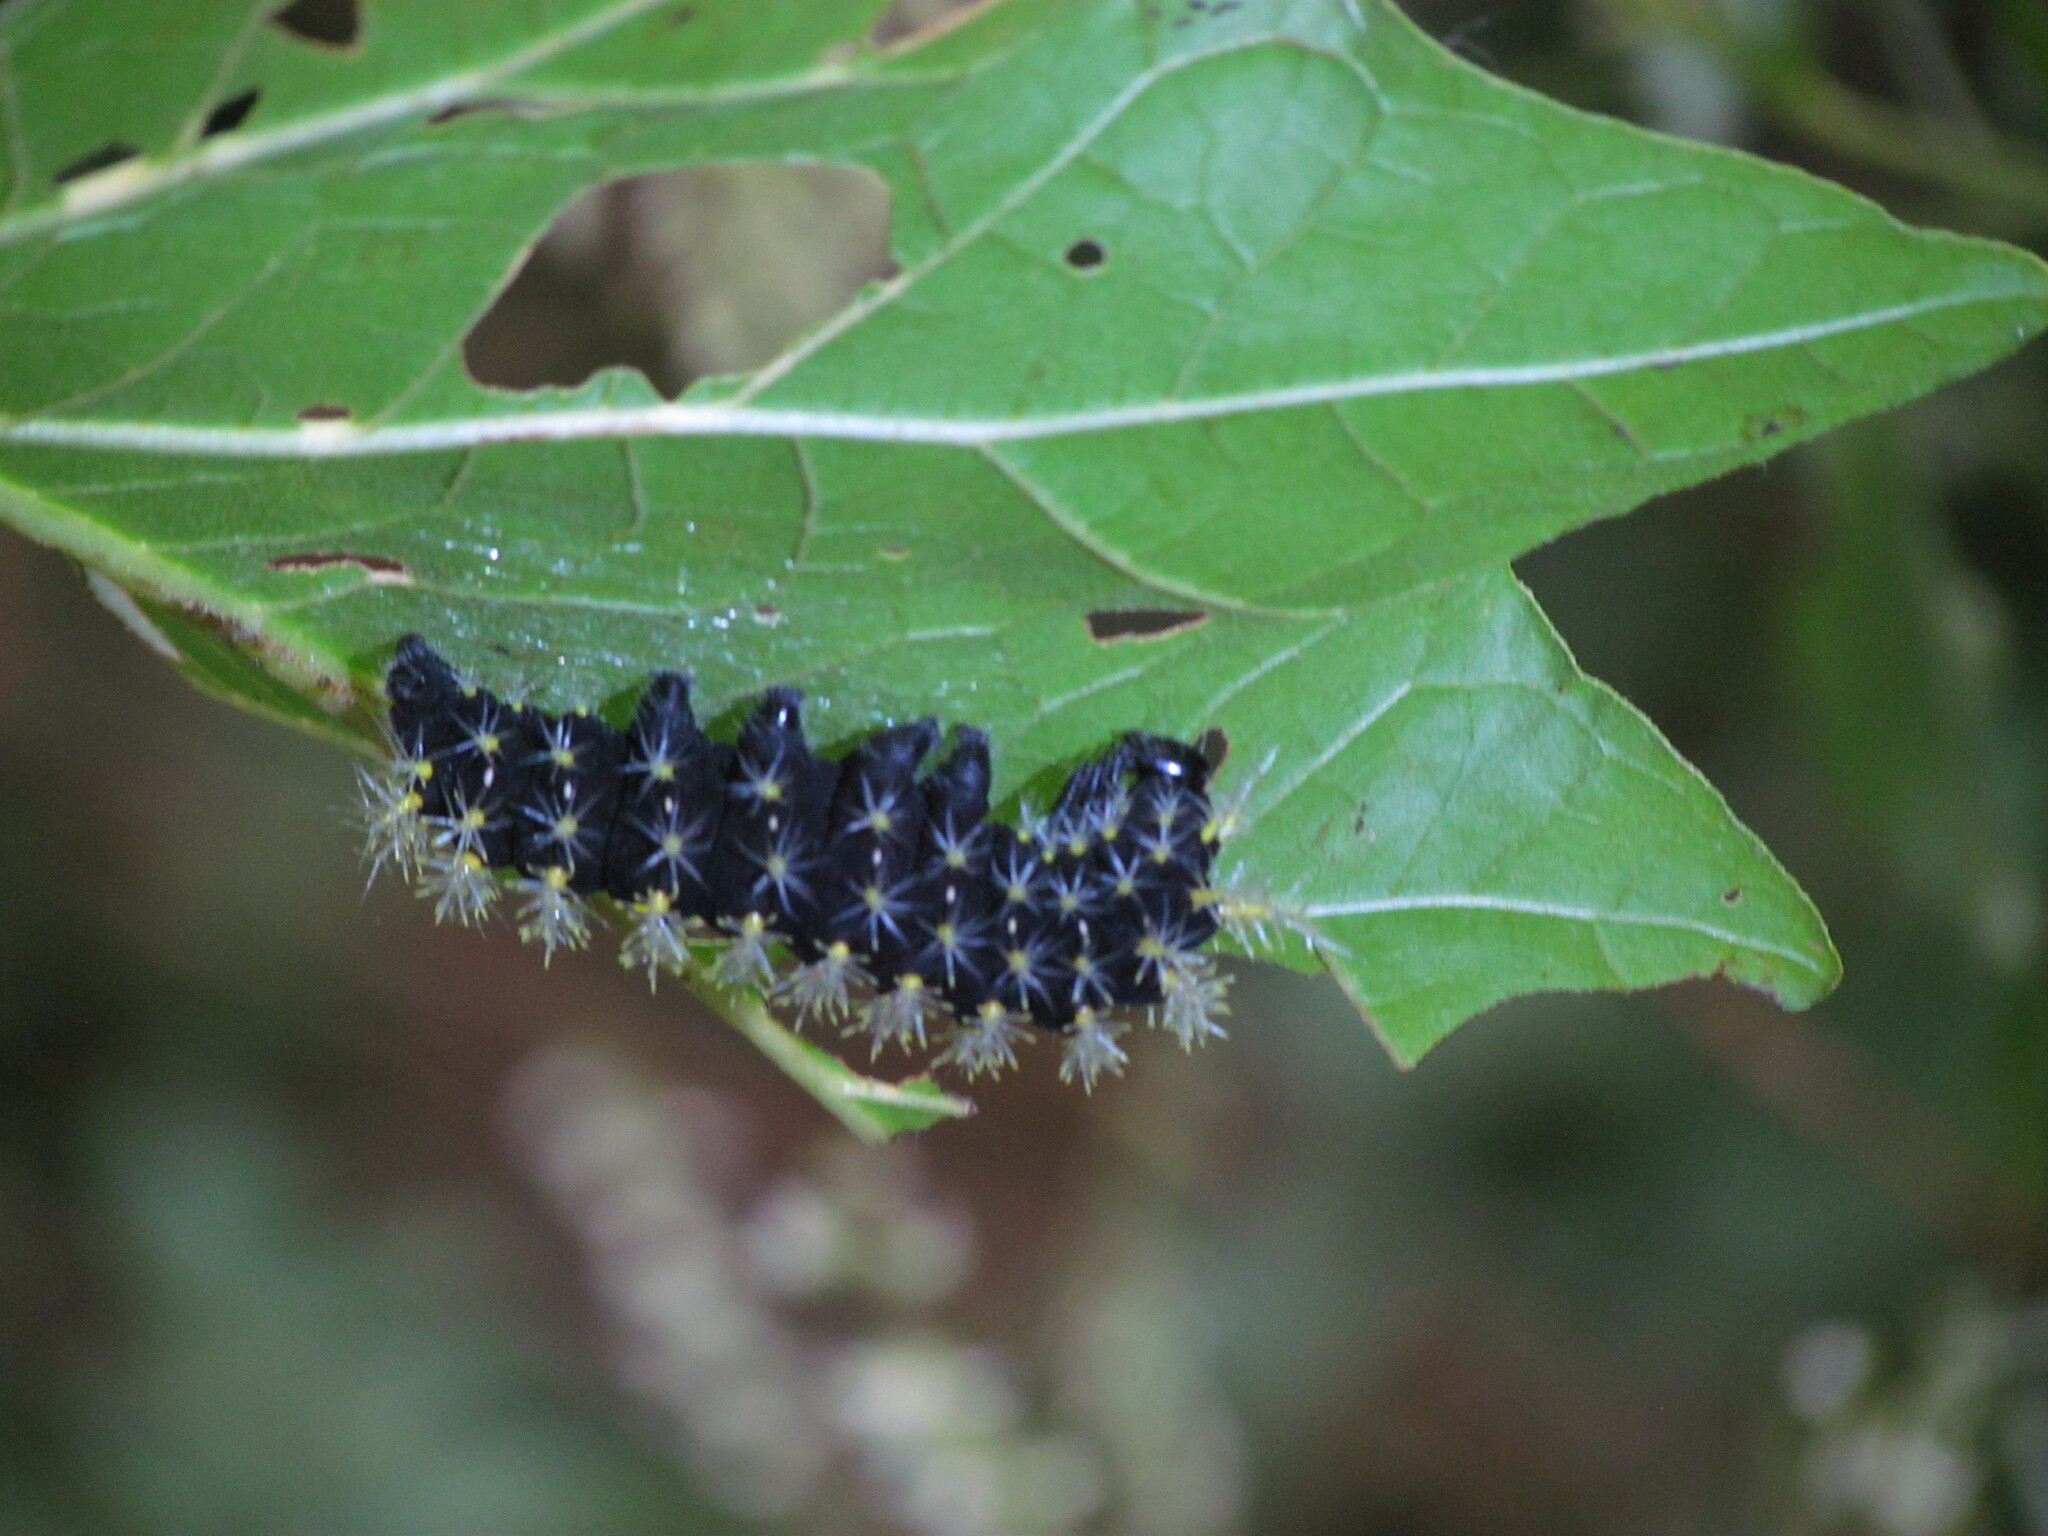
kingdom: Animalia
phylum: Arthropoda
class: Insecta
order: Lepidoptera
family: Saturniidae
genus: Leucanella
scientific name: Leucanella viridescens
